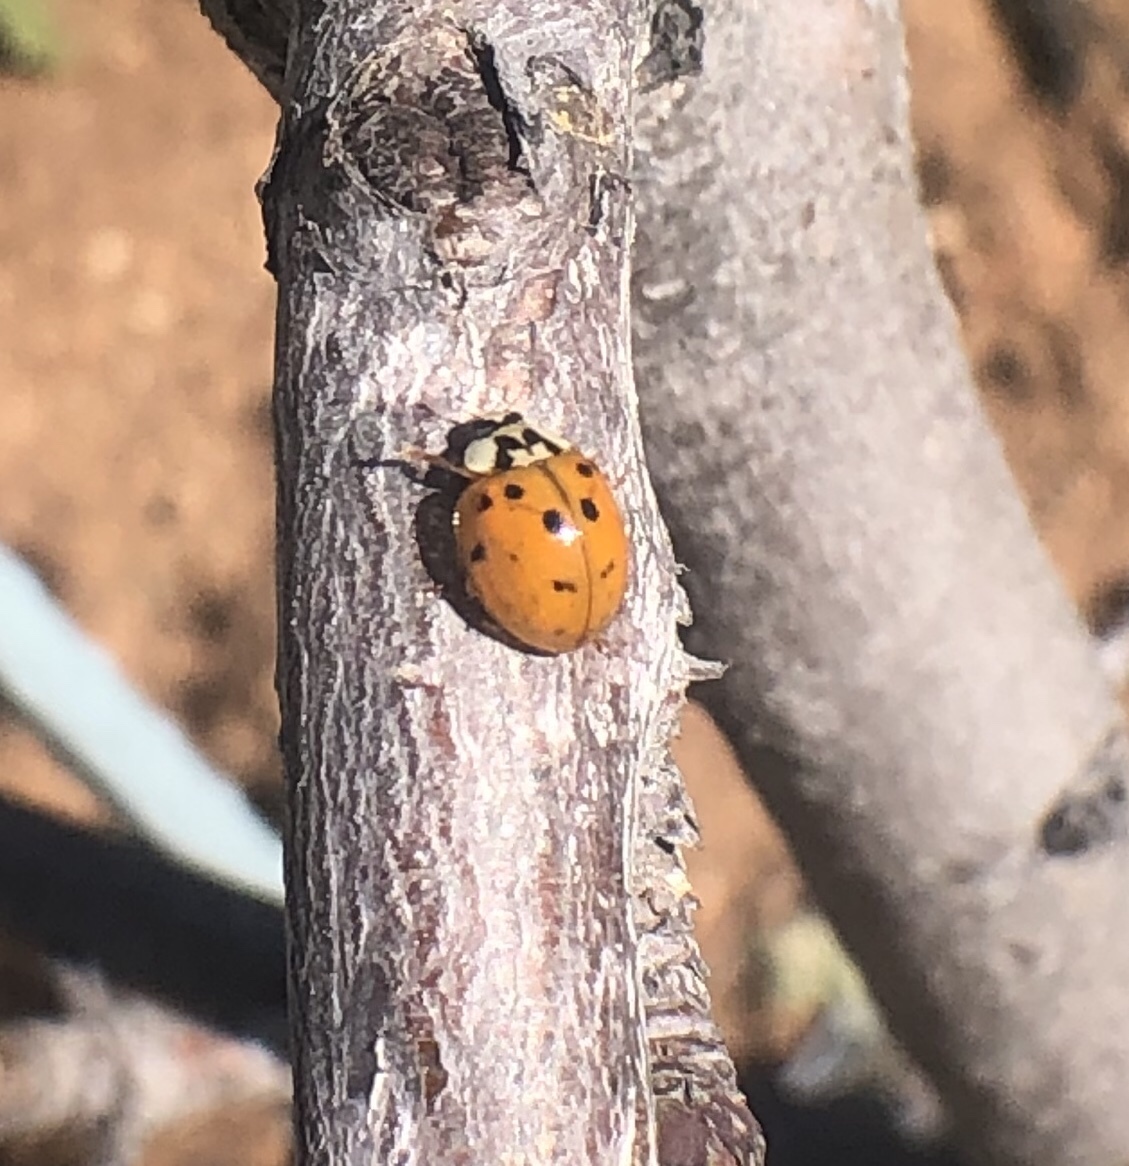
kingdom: Animalia
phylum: Arthropoda
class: Insecta
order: Coleoptera
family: Coccinellidae
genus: Harmonia
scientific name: Harmonia axyridis
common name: Harlequin ladybird
